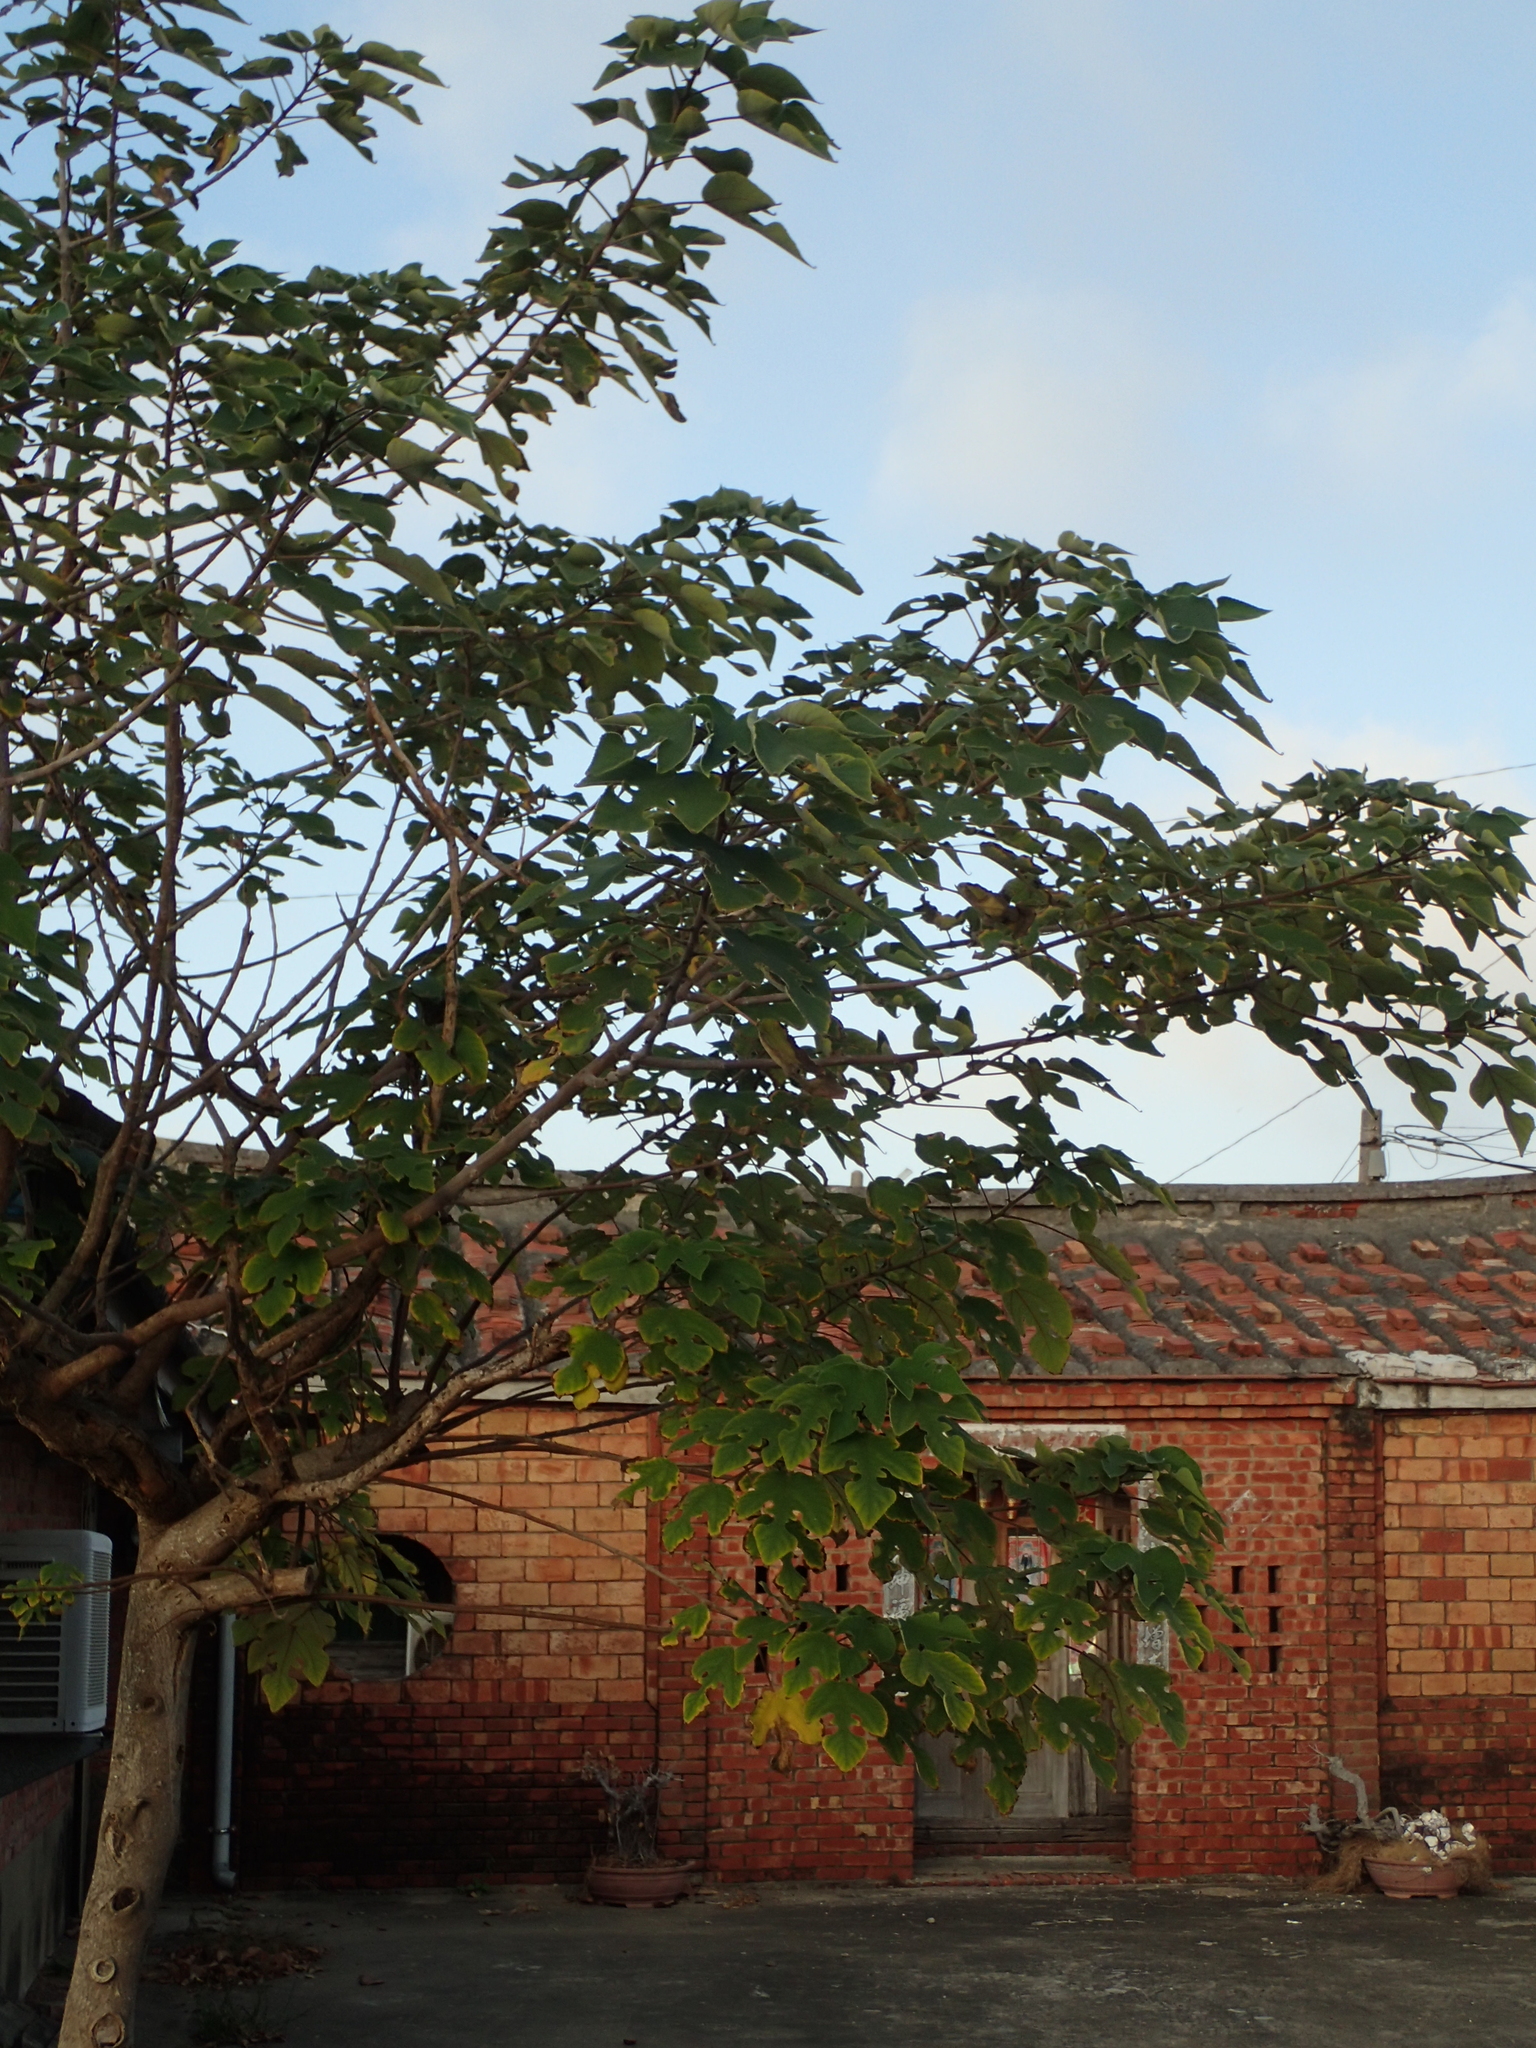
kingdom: Plantae
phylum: Tracheophyta
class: Magnoliopsida
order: Rosales
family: Moraceae
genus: Broussonetia
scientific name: Broussonetia papyrifera
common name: Paper mulberry
